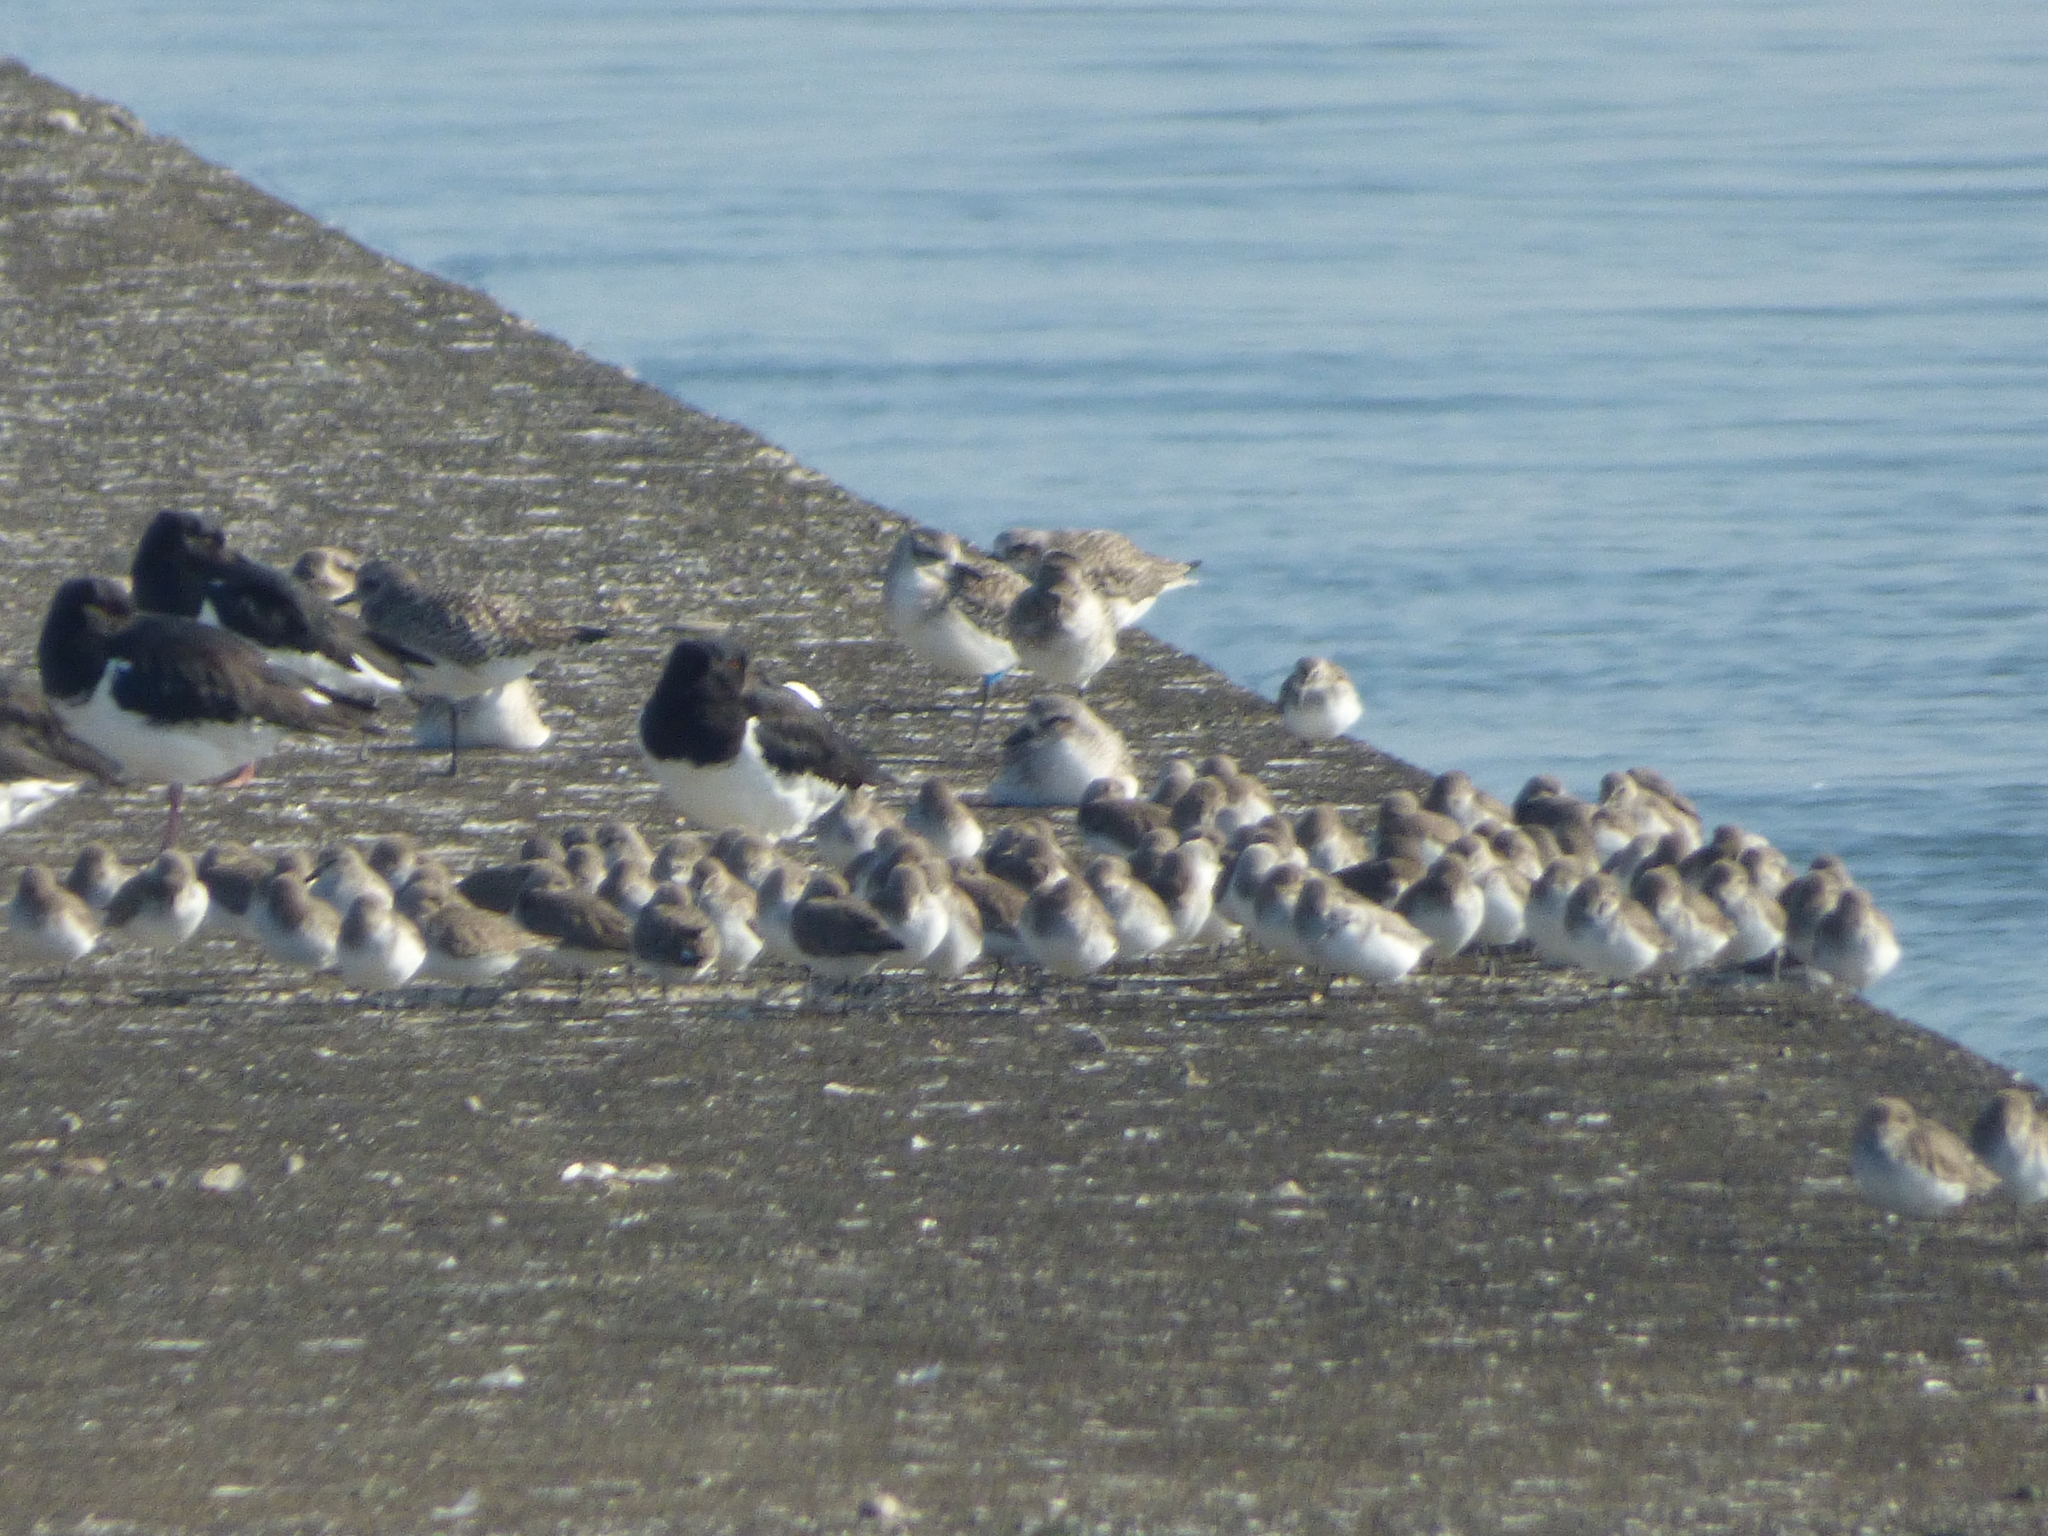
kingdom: Animalia
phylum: Chordata
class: Aves
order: Charadriiformes
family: Scolopacidae
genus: Calidris
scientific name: Calidris alpina
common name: Dunlin
